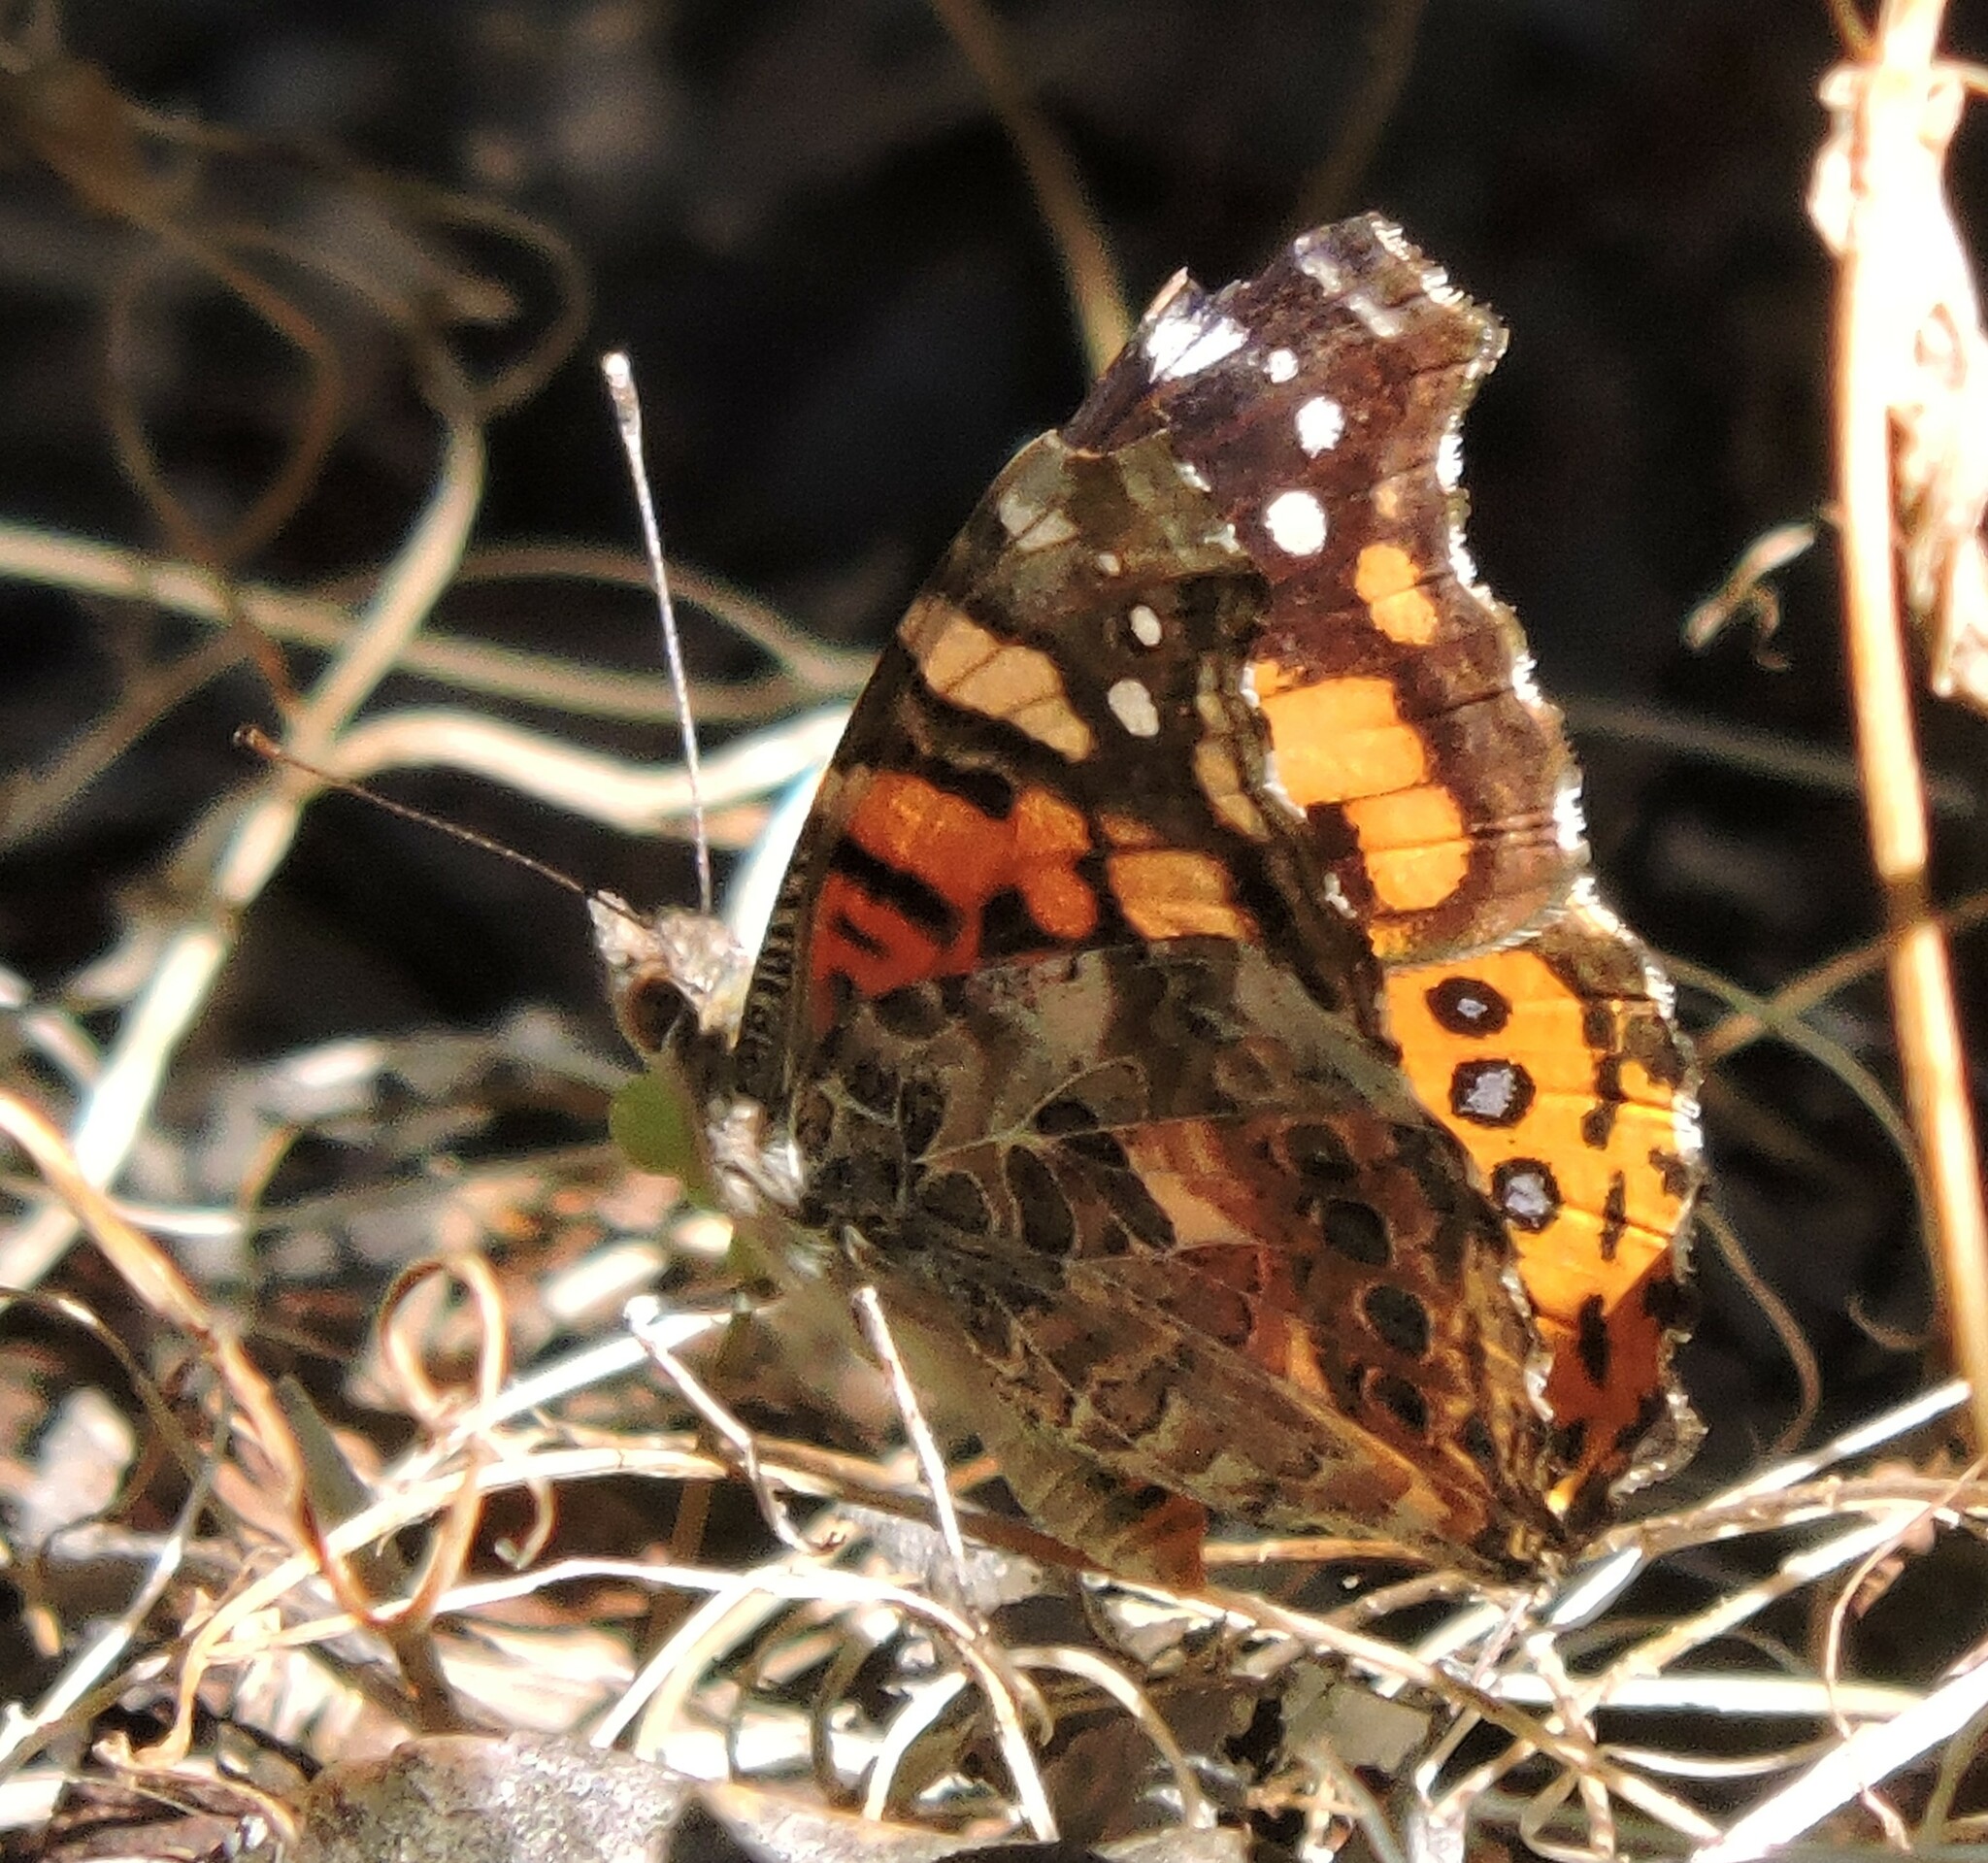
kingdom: Animalia
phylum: Arthropoda
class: Insecta
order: Lepidoptera
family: Nymphalidae
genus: Vanessa
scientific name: Vanessa annabella
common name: West coast lady
